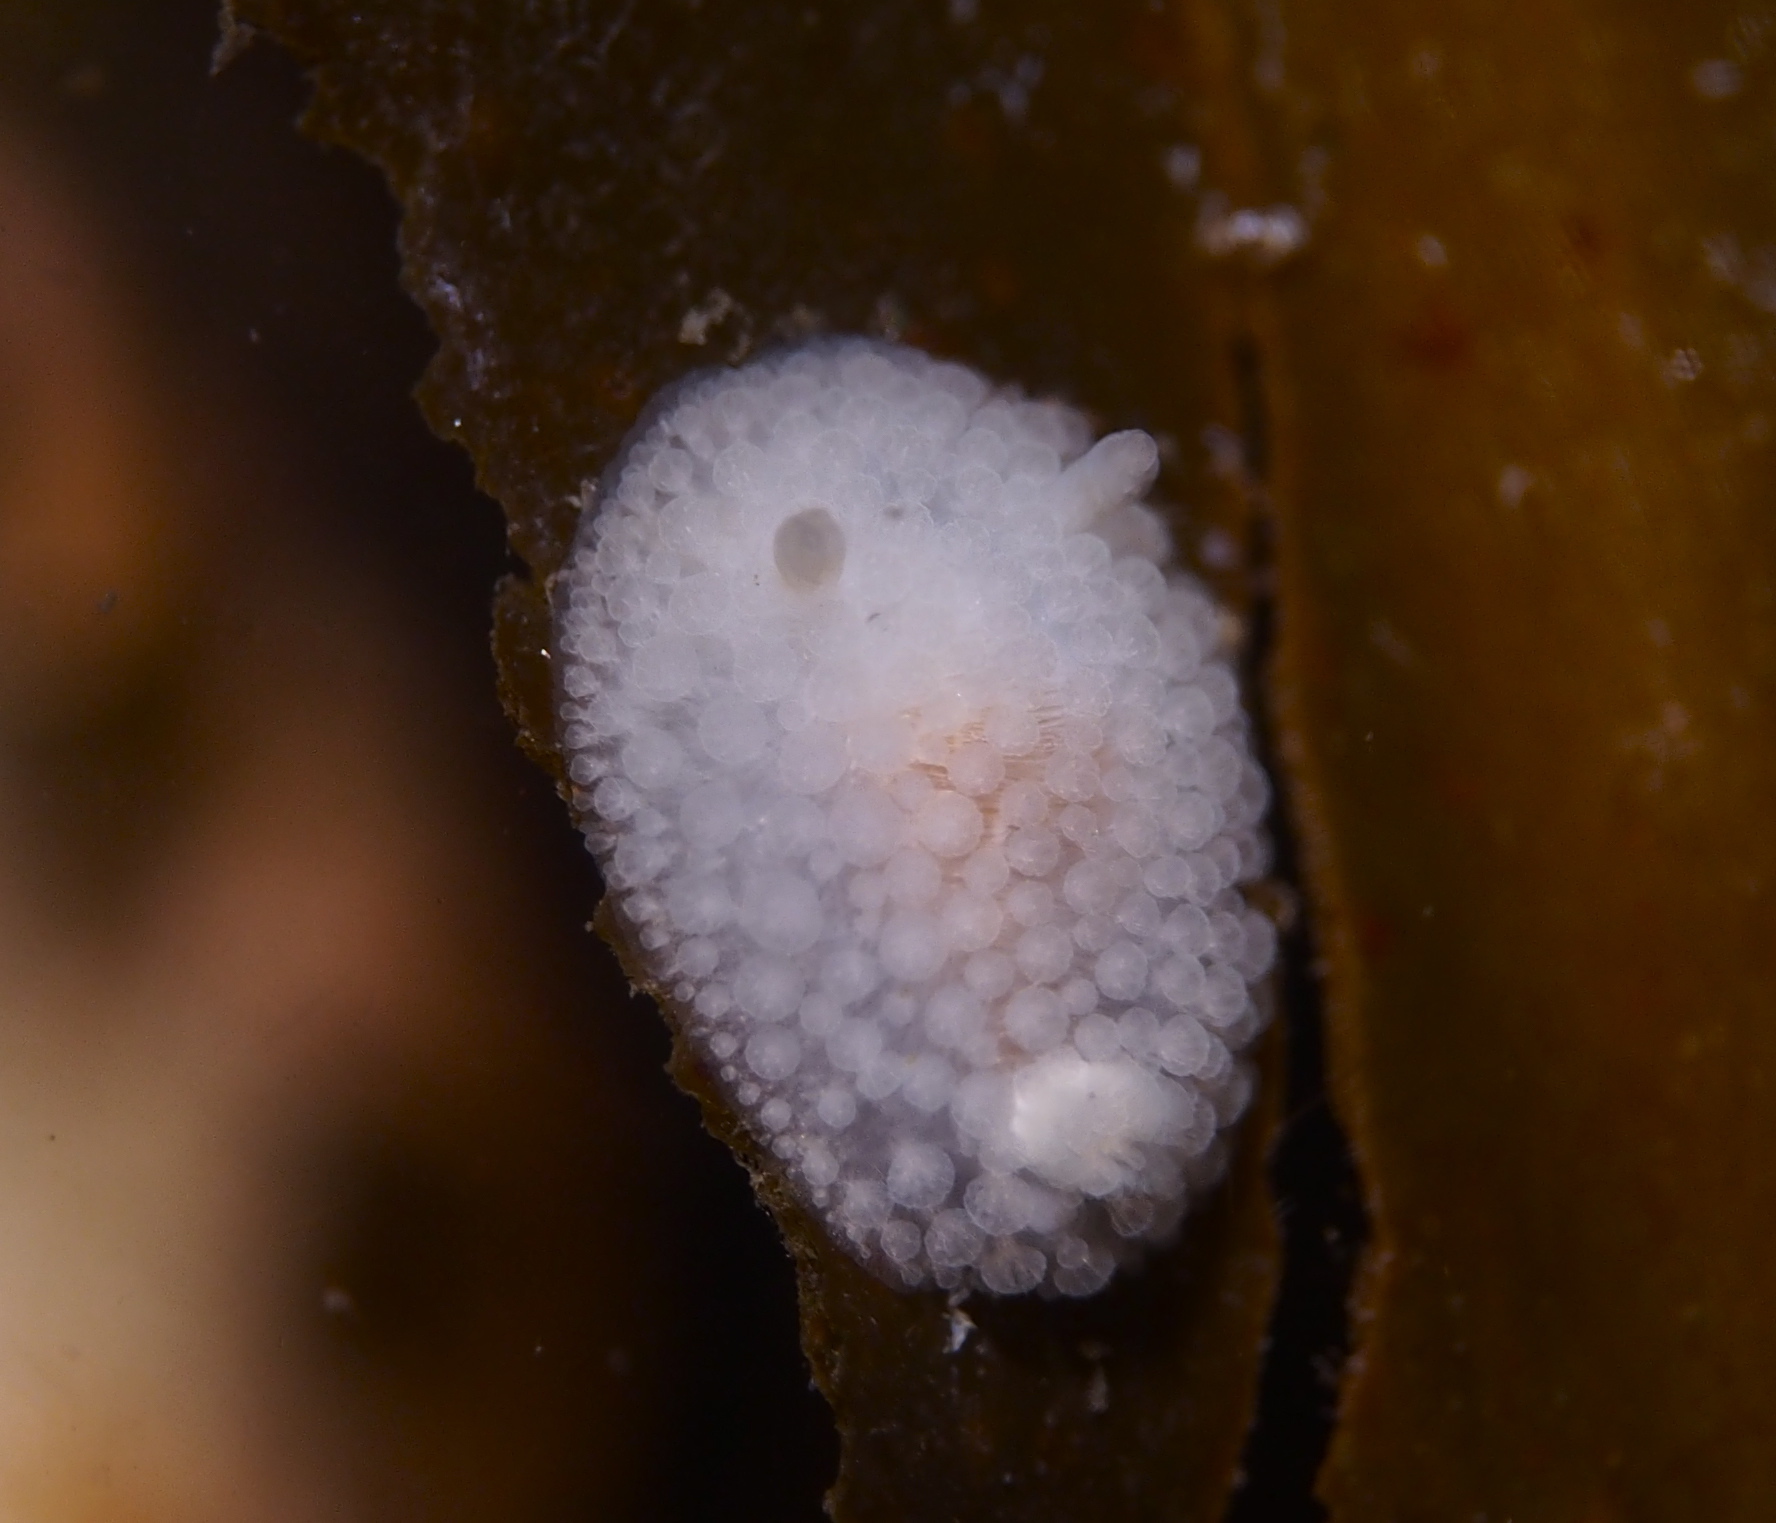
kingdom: Animalia
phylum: Mollusca
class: Gastropoda
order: Nudibranchia
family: Onchidorididae
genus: Onchidoris
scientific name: Onchidoris muricata
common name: Rough doris
